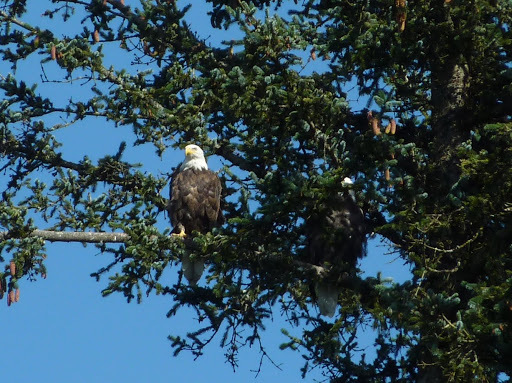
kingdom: Animalia
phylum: Chordata
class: Aves
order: Accipitriformes
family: Accipitridae
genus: Haliaeetus
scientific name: Haliaeetus leucocephalus
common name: Bald eagle
